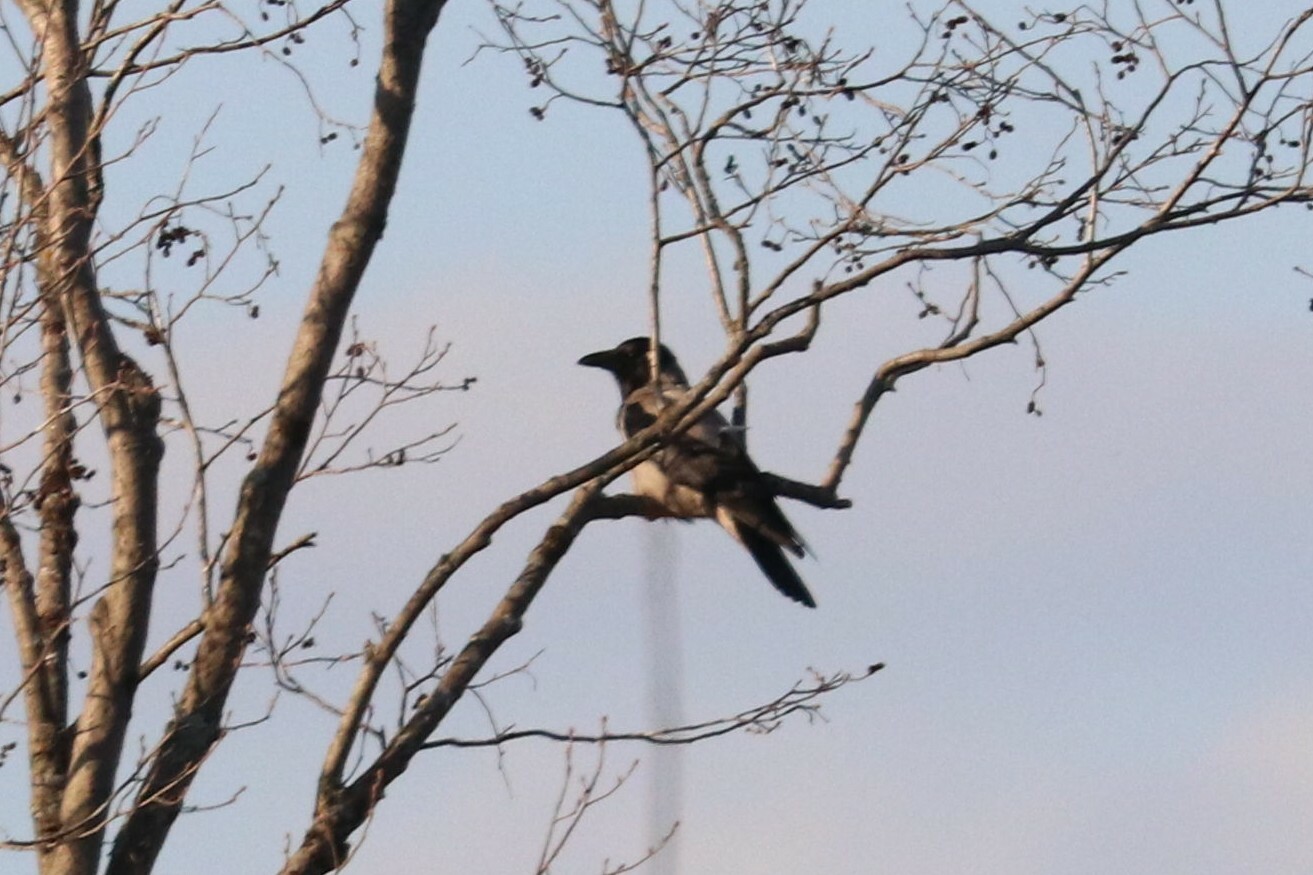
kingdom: Animalia
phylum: Chordata
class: Aves
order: Passeriformes
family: Corvidae
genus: Corvus
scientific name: Corvus cornix
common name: Hooded crow
